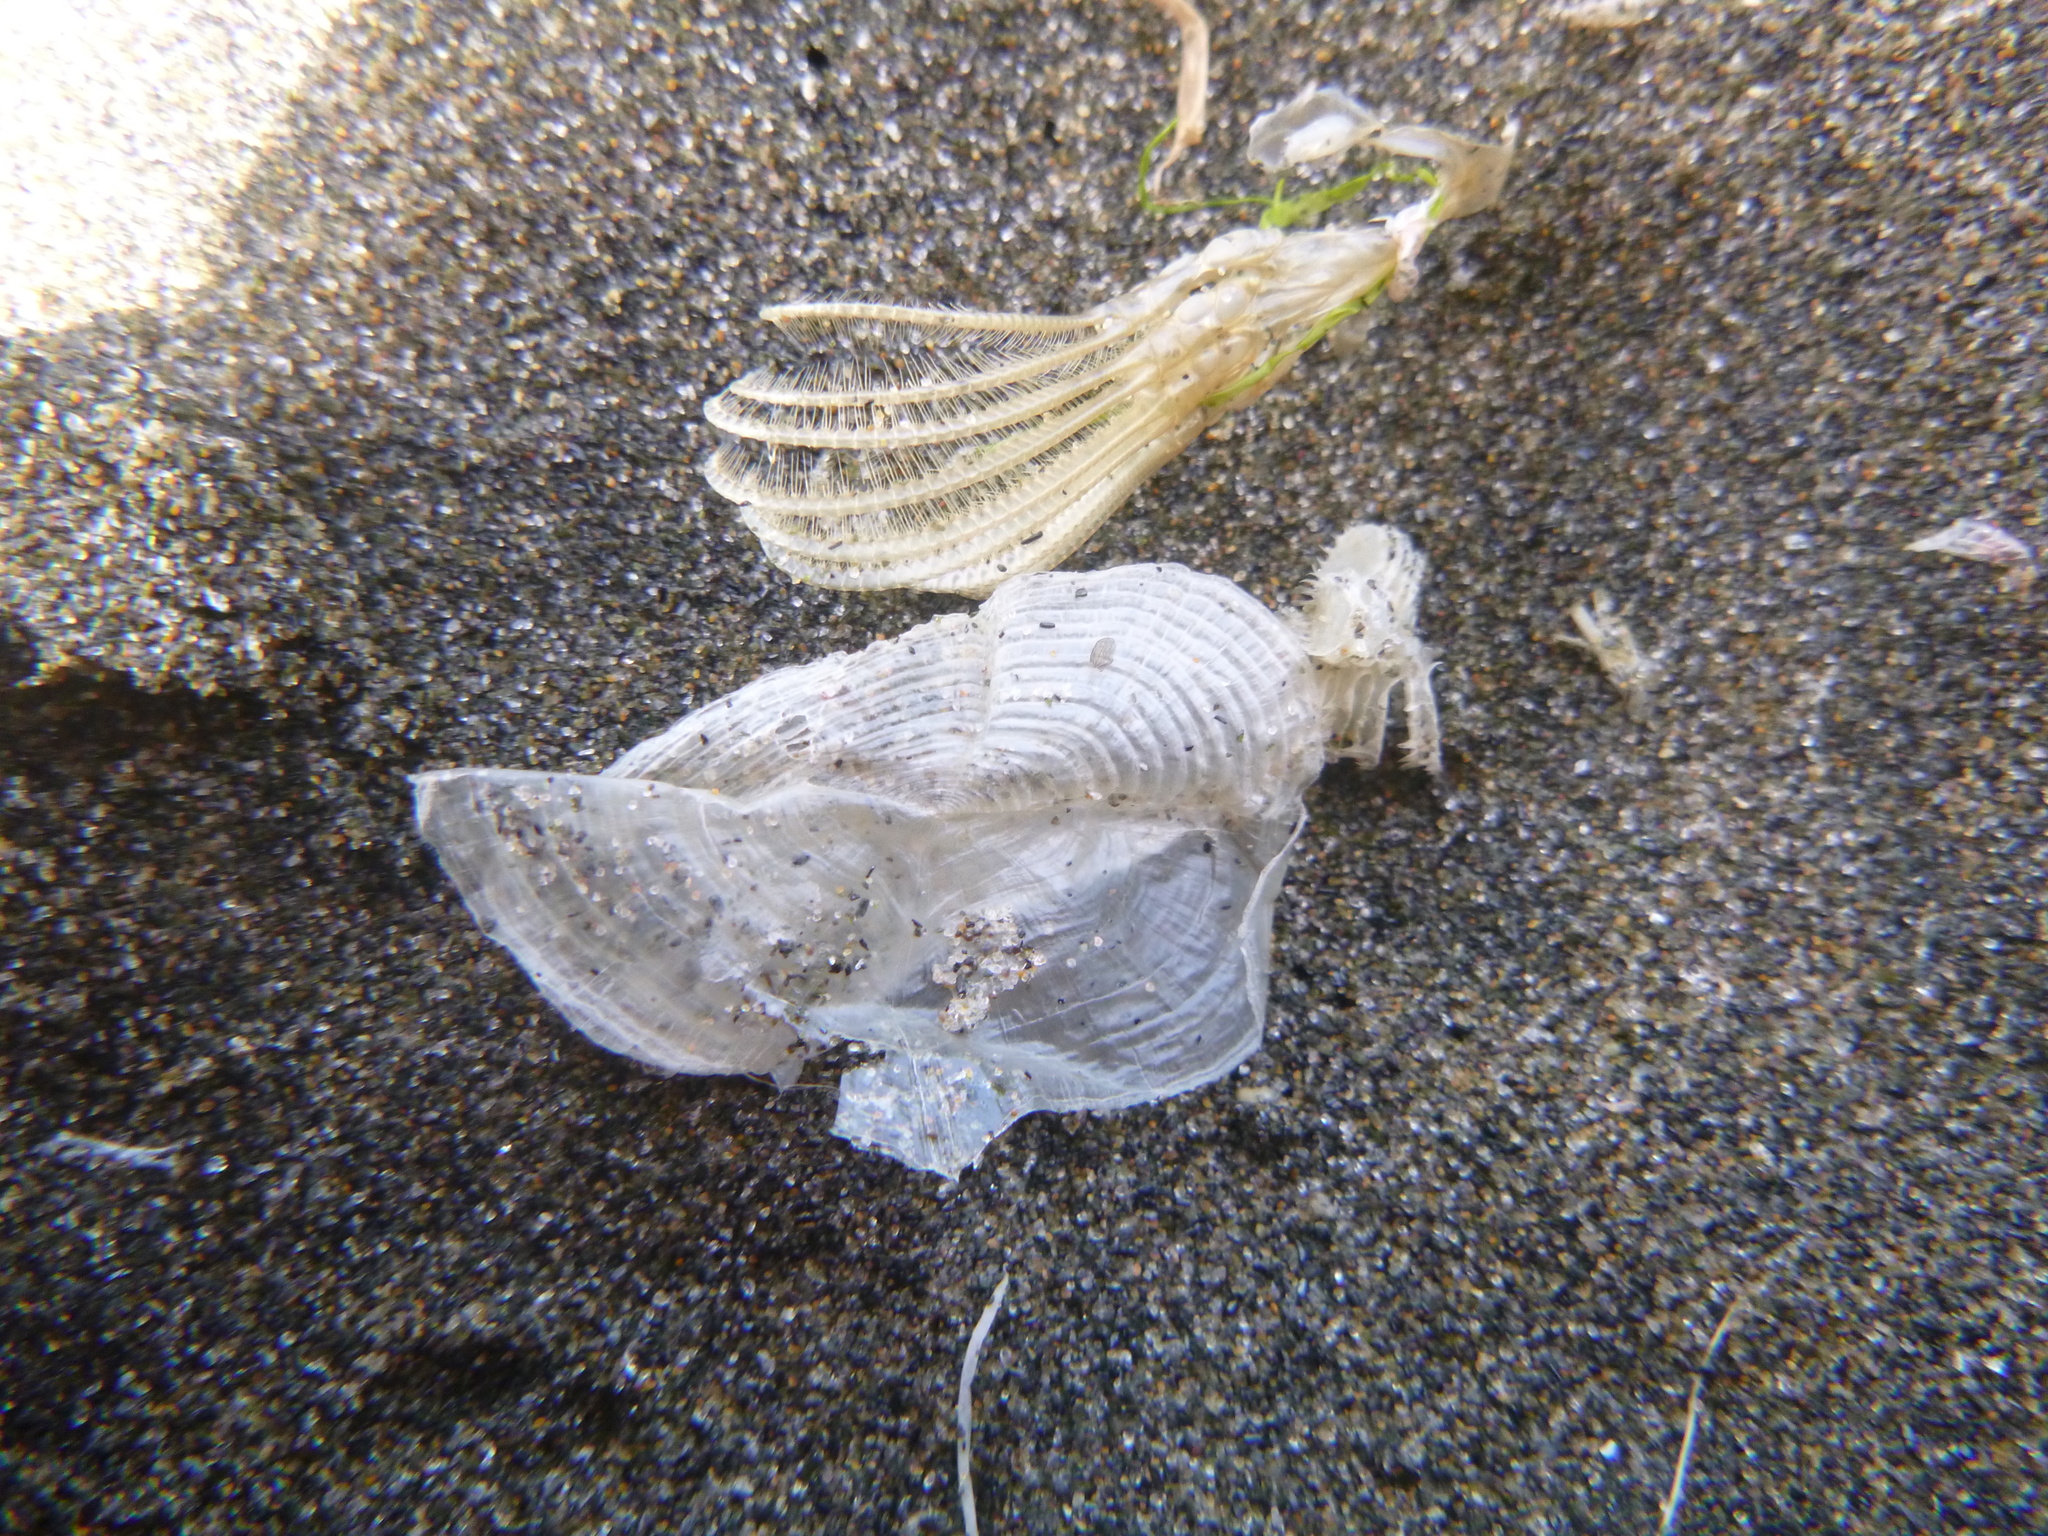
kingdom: Animalia
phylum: Cnidaria
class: Hydrozoa
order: Anthoathecata
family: Porpitidae
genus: Velella
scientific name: Velella velella
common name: By-the-wind-sailor
